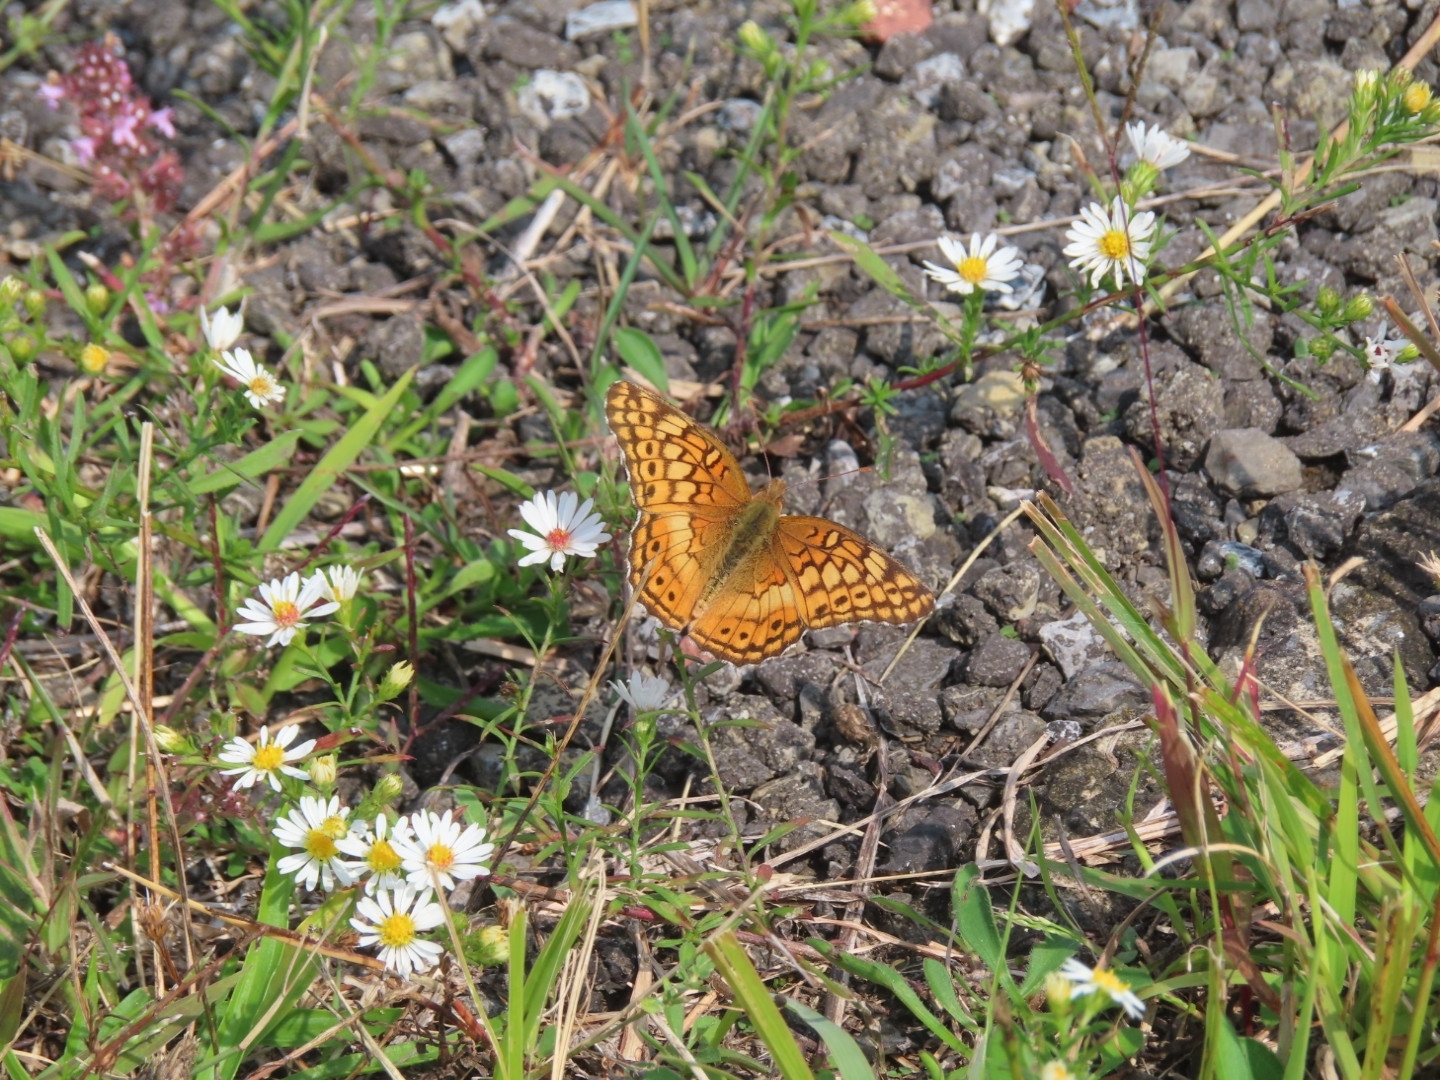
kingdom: Animalia
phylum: Arthropoda
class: Insecta
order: Lepidoptera
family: Nymphalidae
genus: Euptoieta
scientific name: Euptoieta claudia
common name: Variegated fritillary
